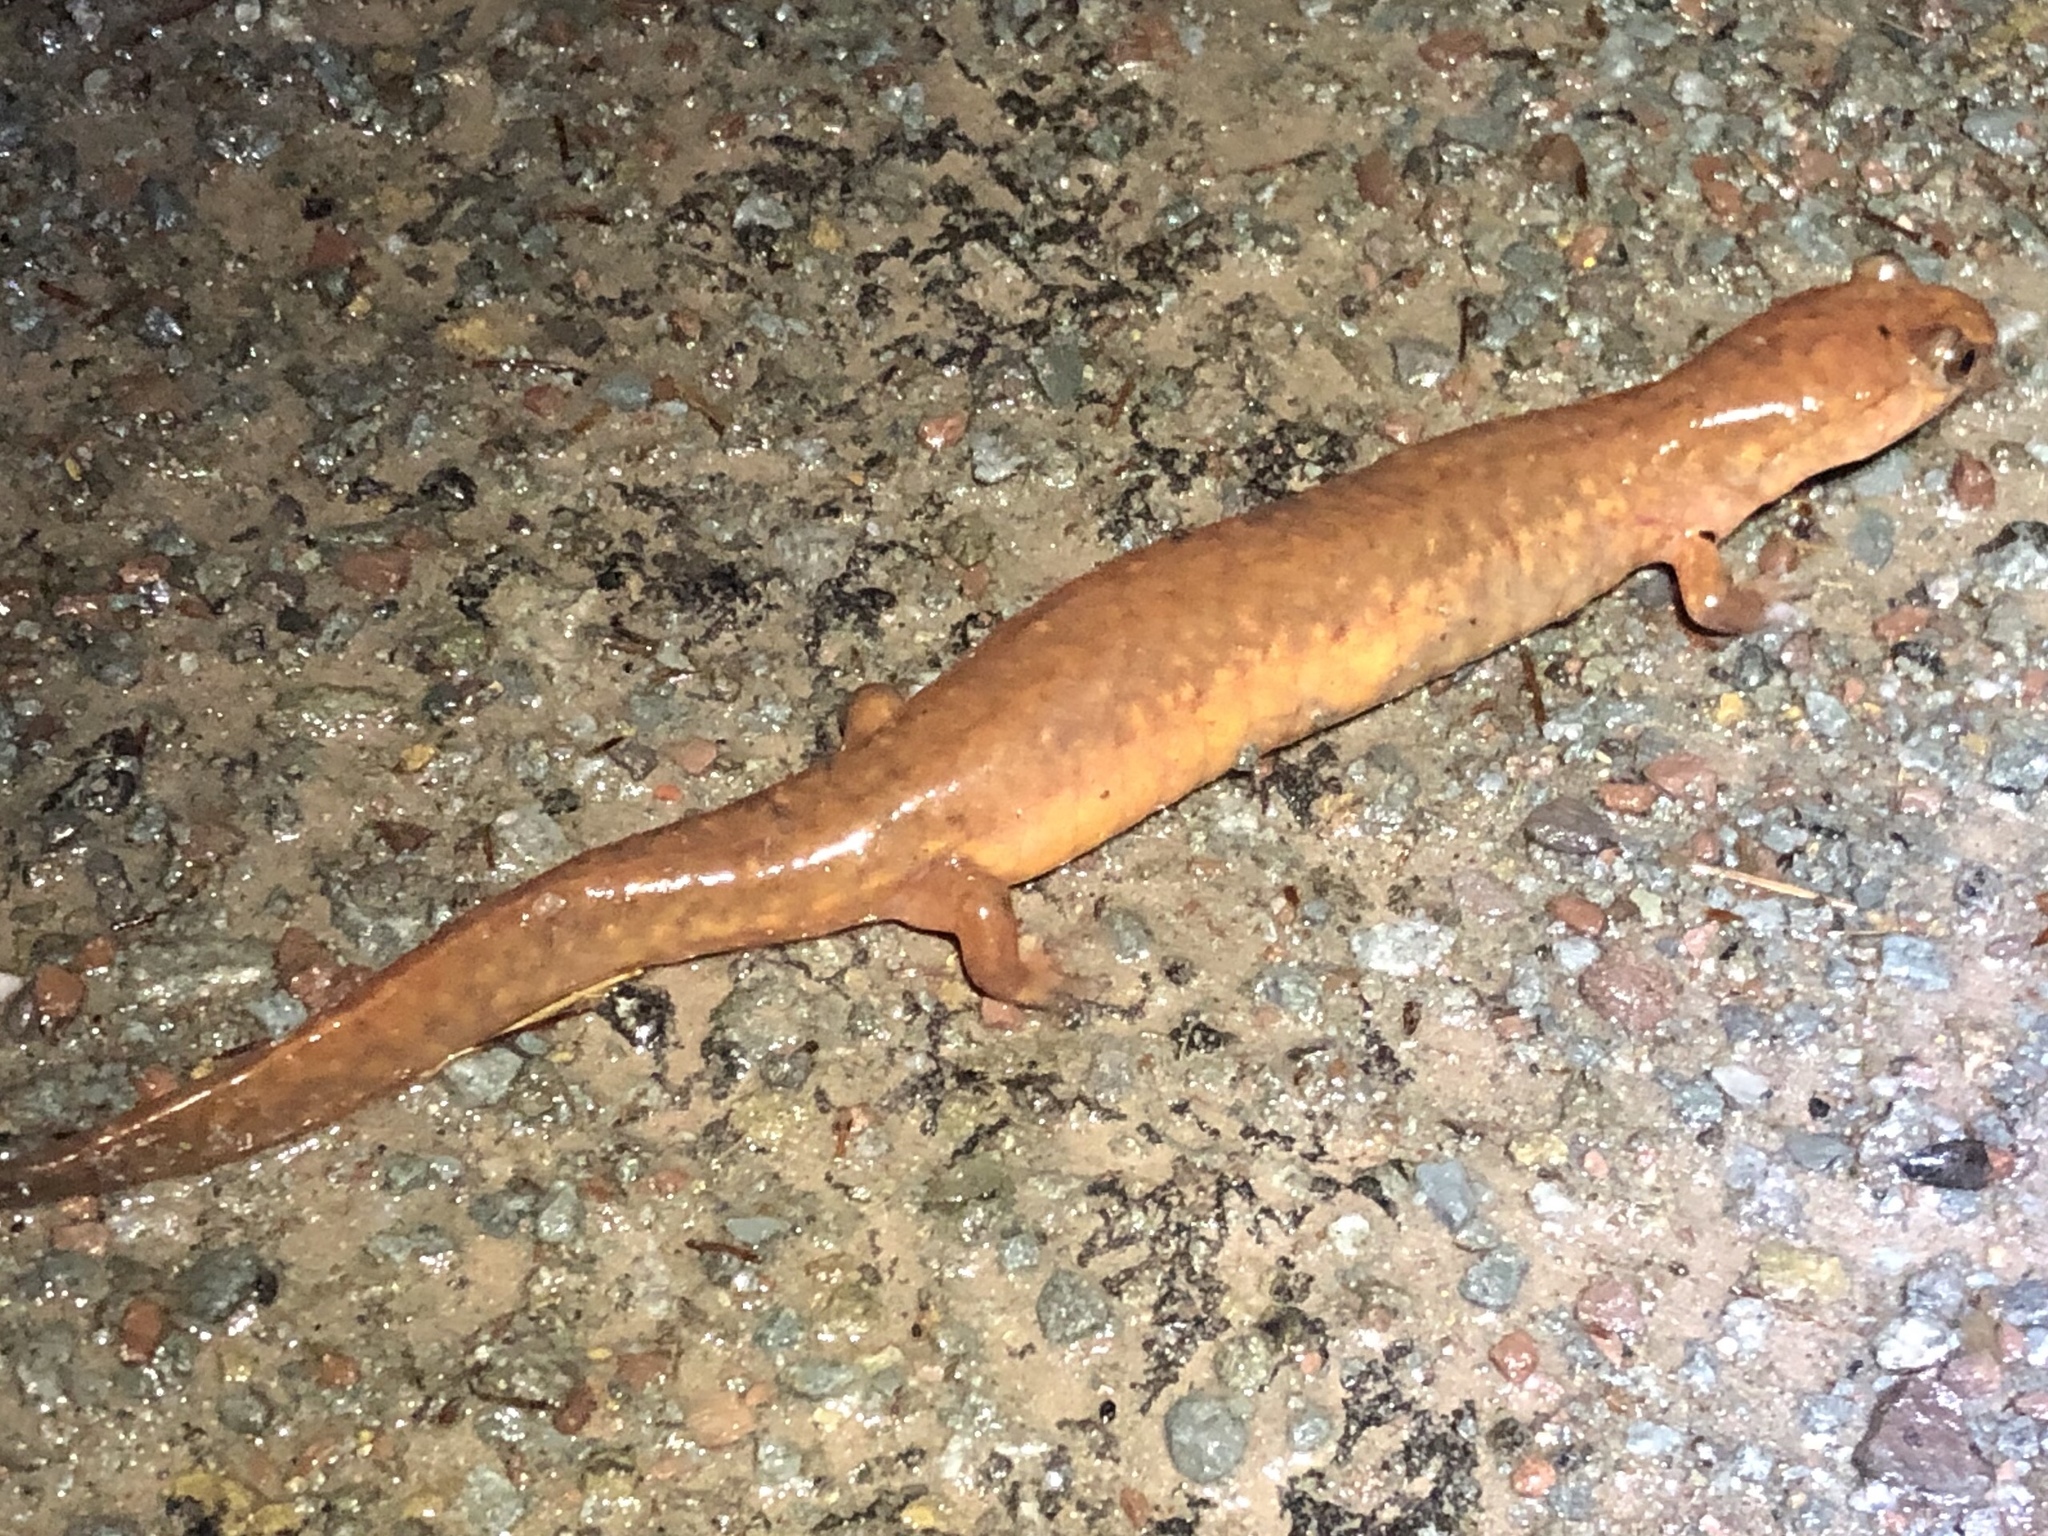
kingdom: Animalia
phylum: Chordata
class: Amphibia
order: Caudata
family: Plethodontidae
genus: Gyrinophilus
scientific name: Gyrinophilus porphyriticus
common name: Spring salamander
